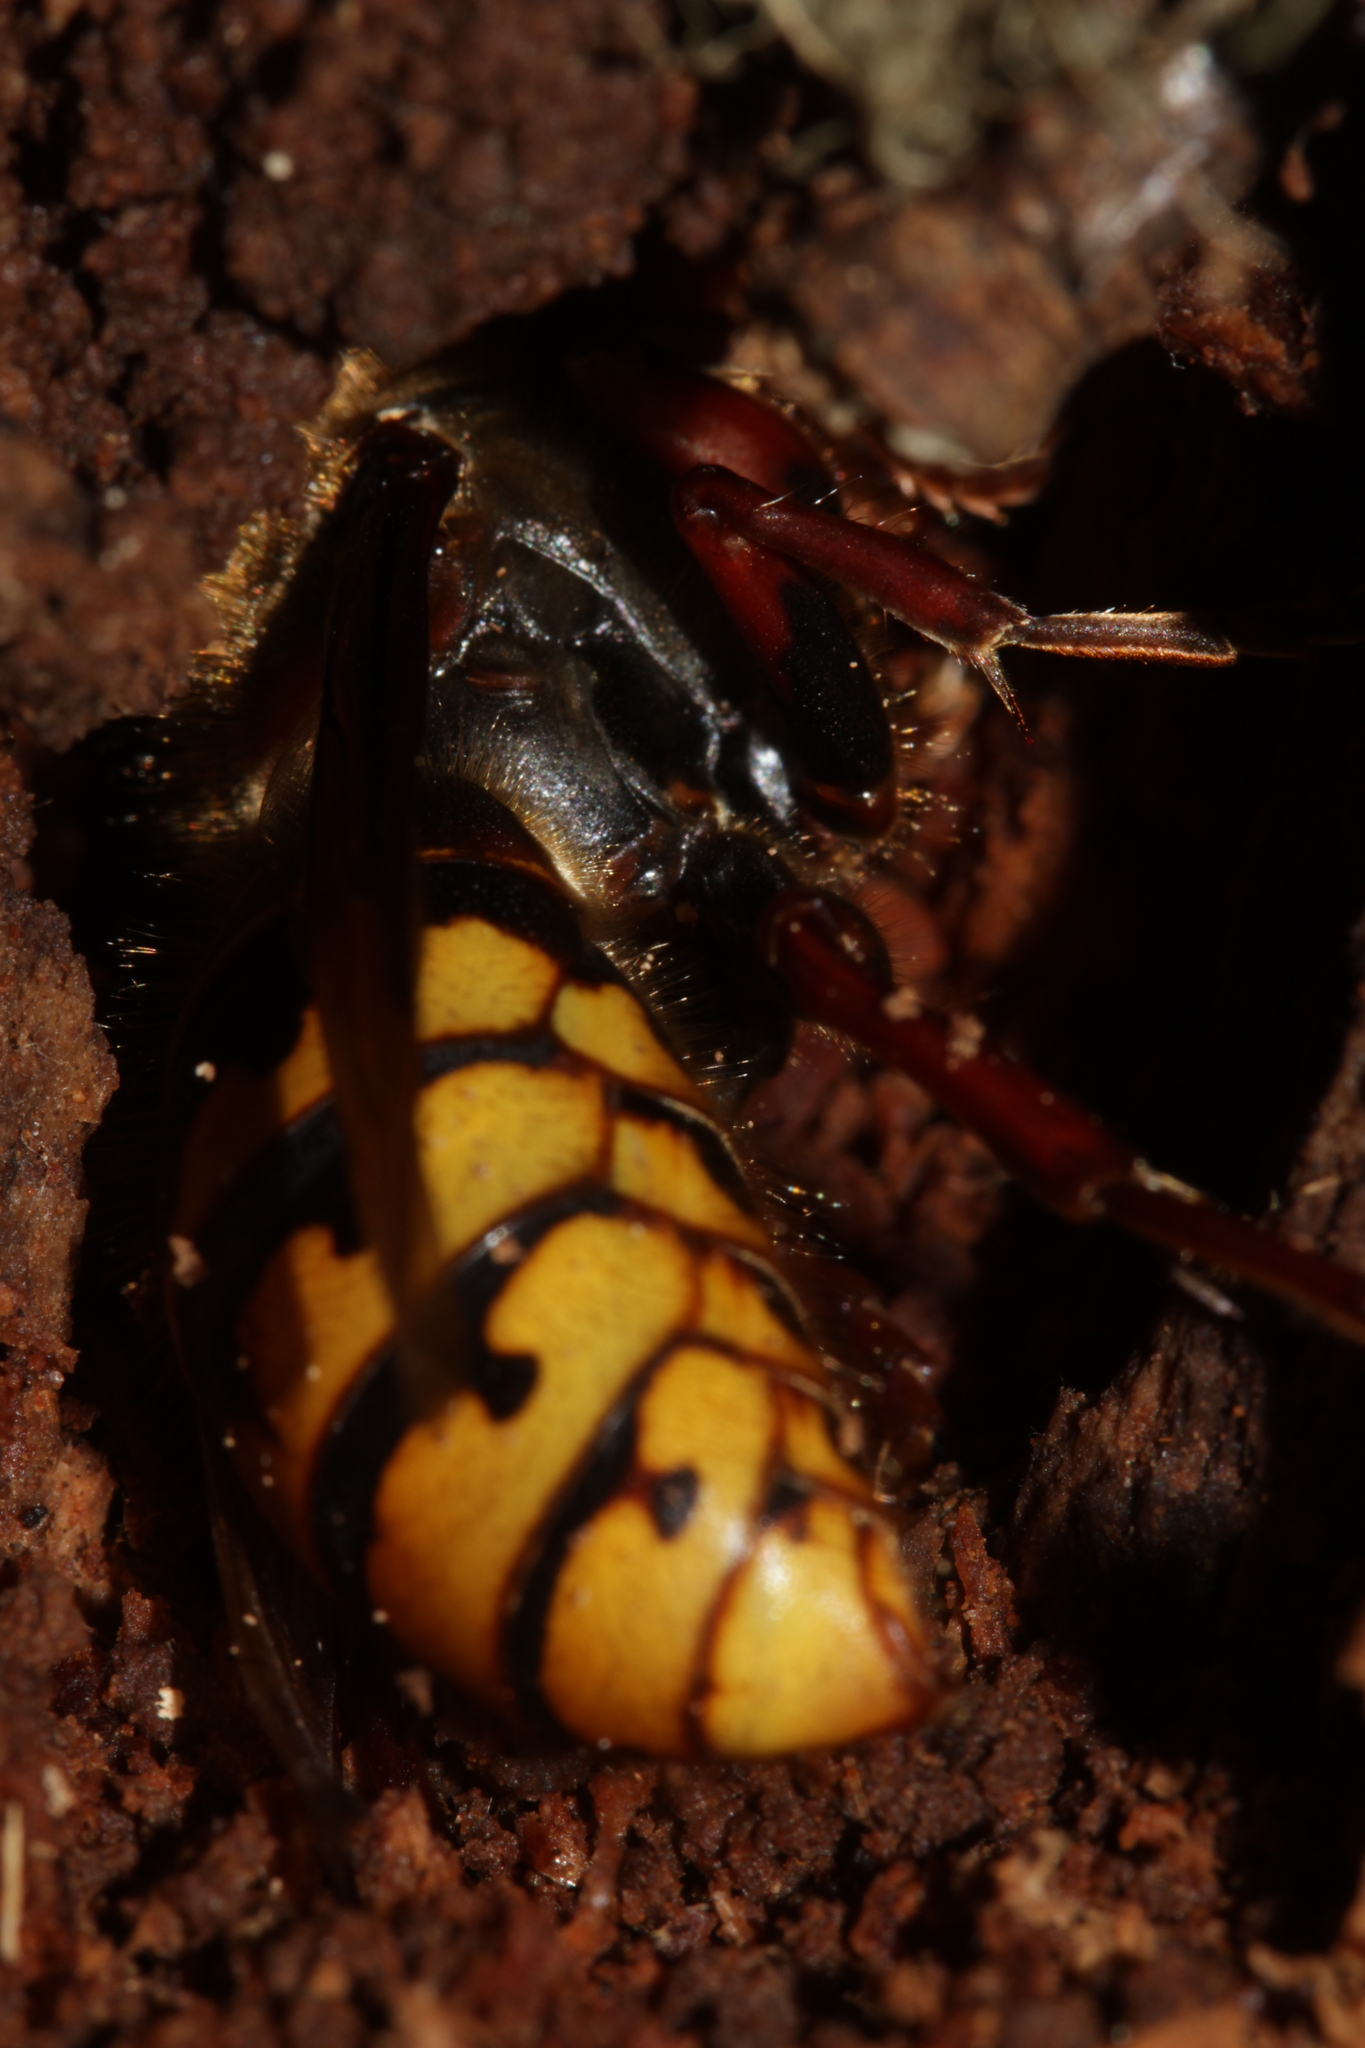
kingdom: Animalia
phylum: Arthropoda
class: Insecta
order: Hymenoptera
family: Vespidae
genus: Vespa
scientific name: Vespa crabro
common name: Hornet
